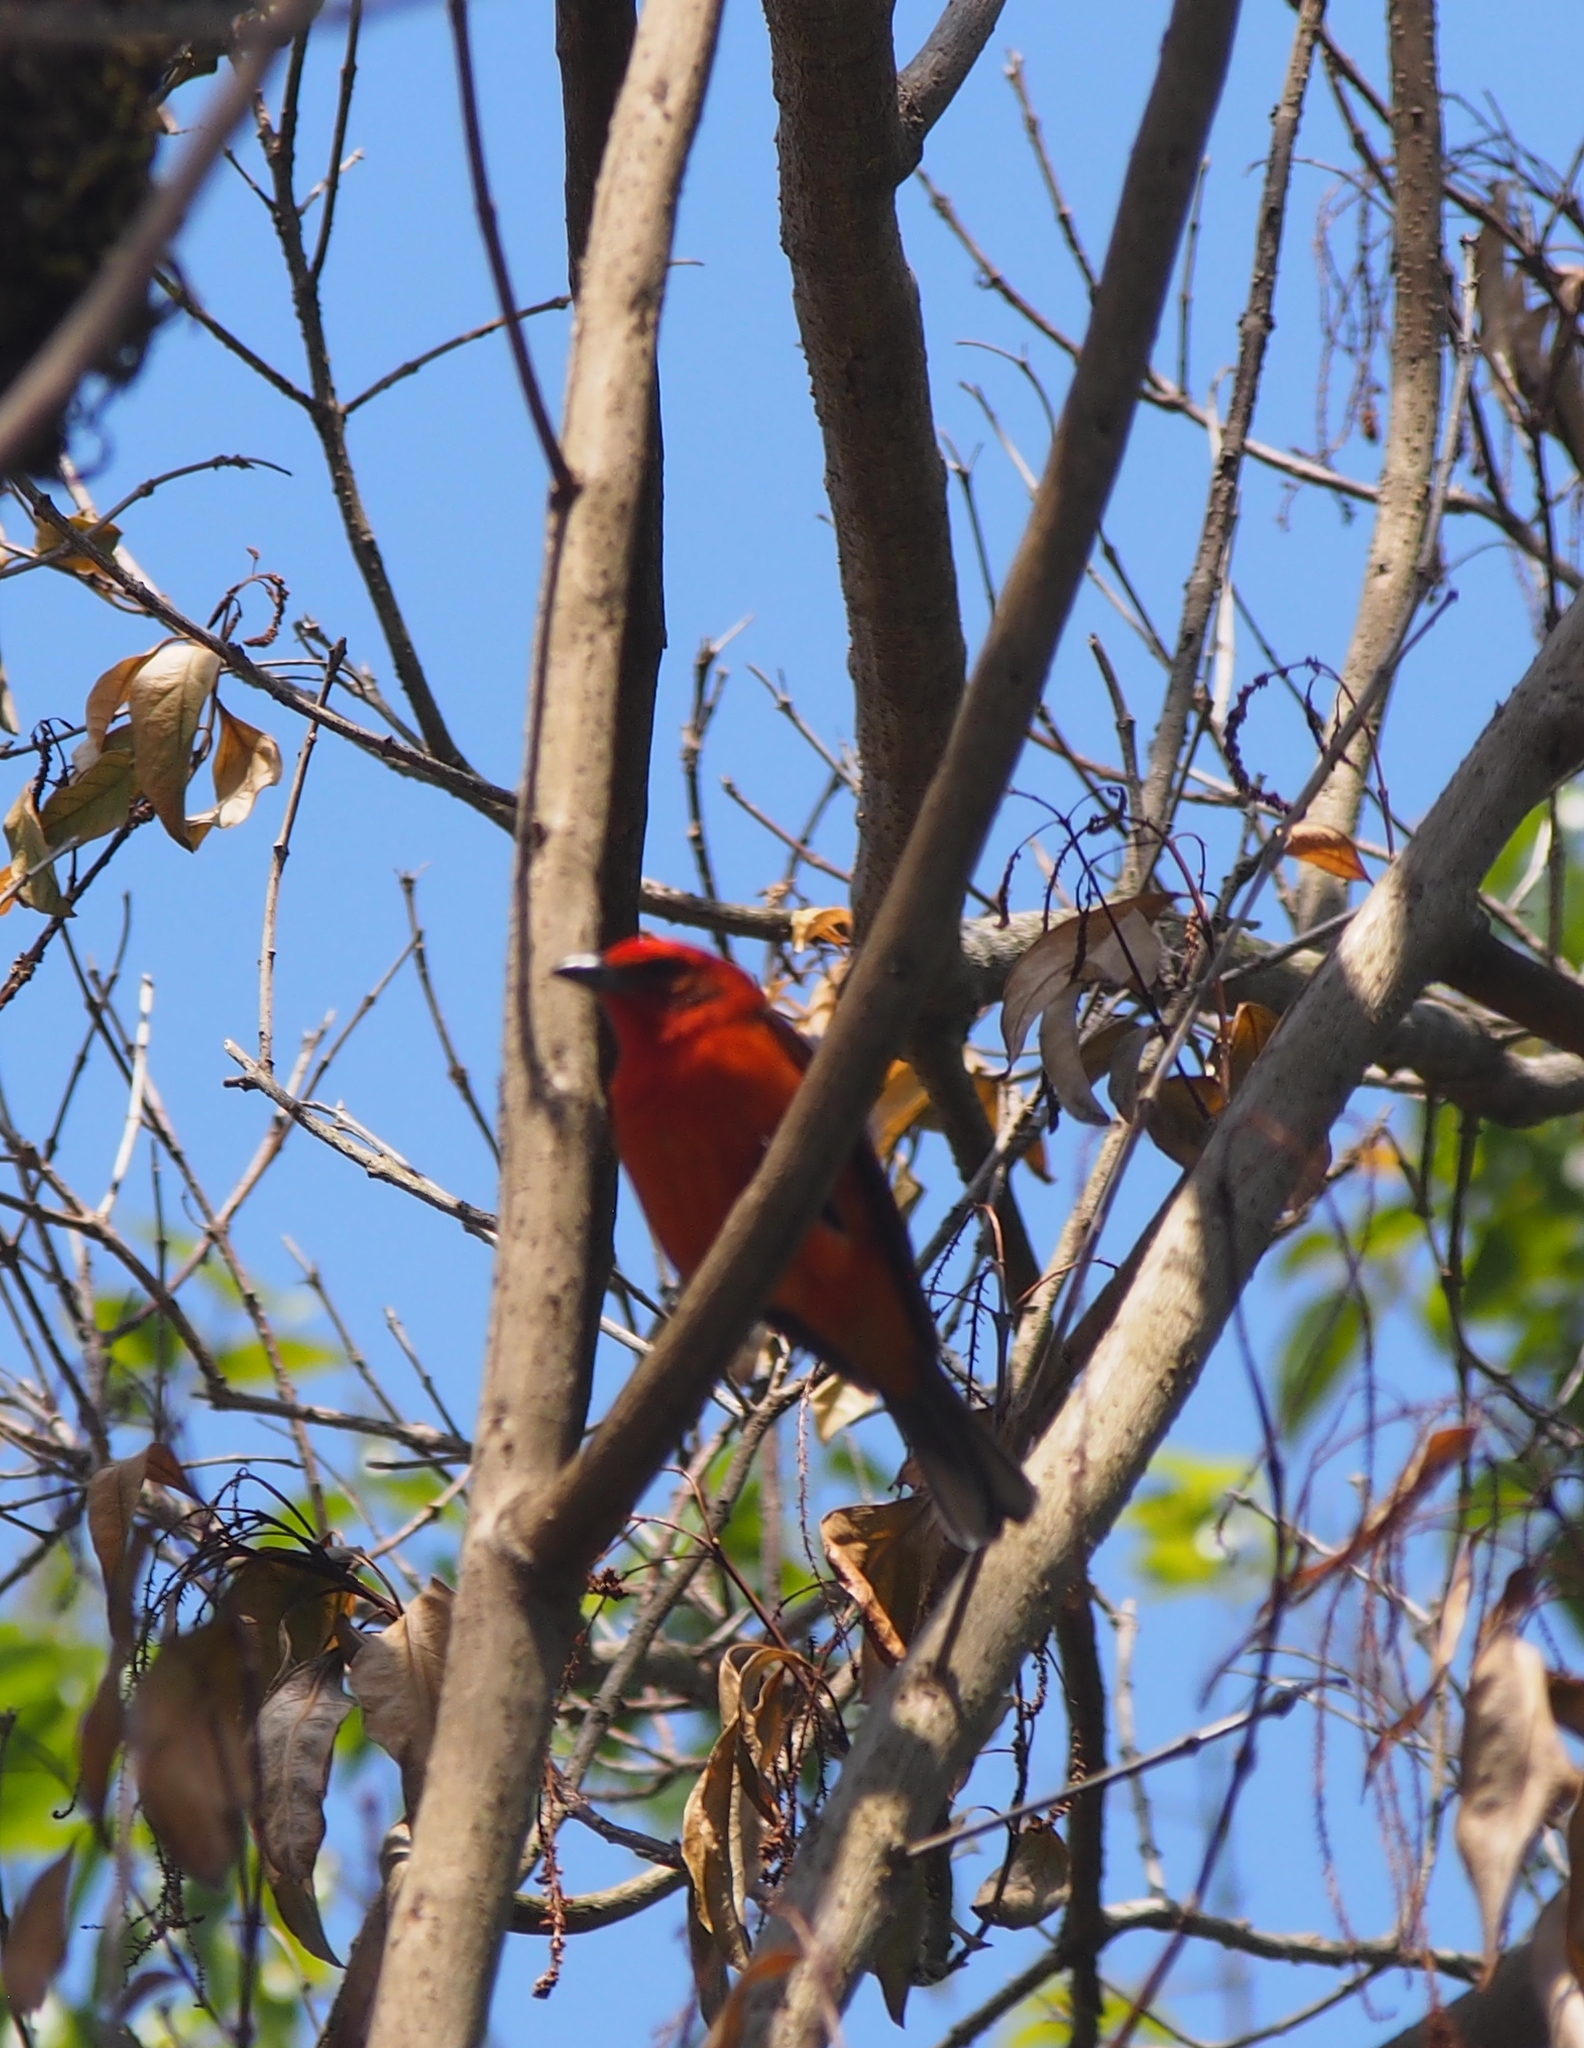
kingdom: Animalia
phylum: Chordata
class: Aves
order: Passeriformes
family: Cardinalidae
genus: Piranga
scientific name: Piranga rubra
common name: Summer tanager
